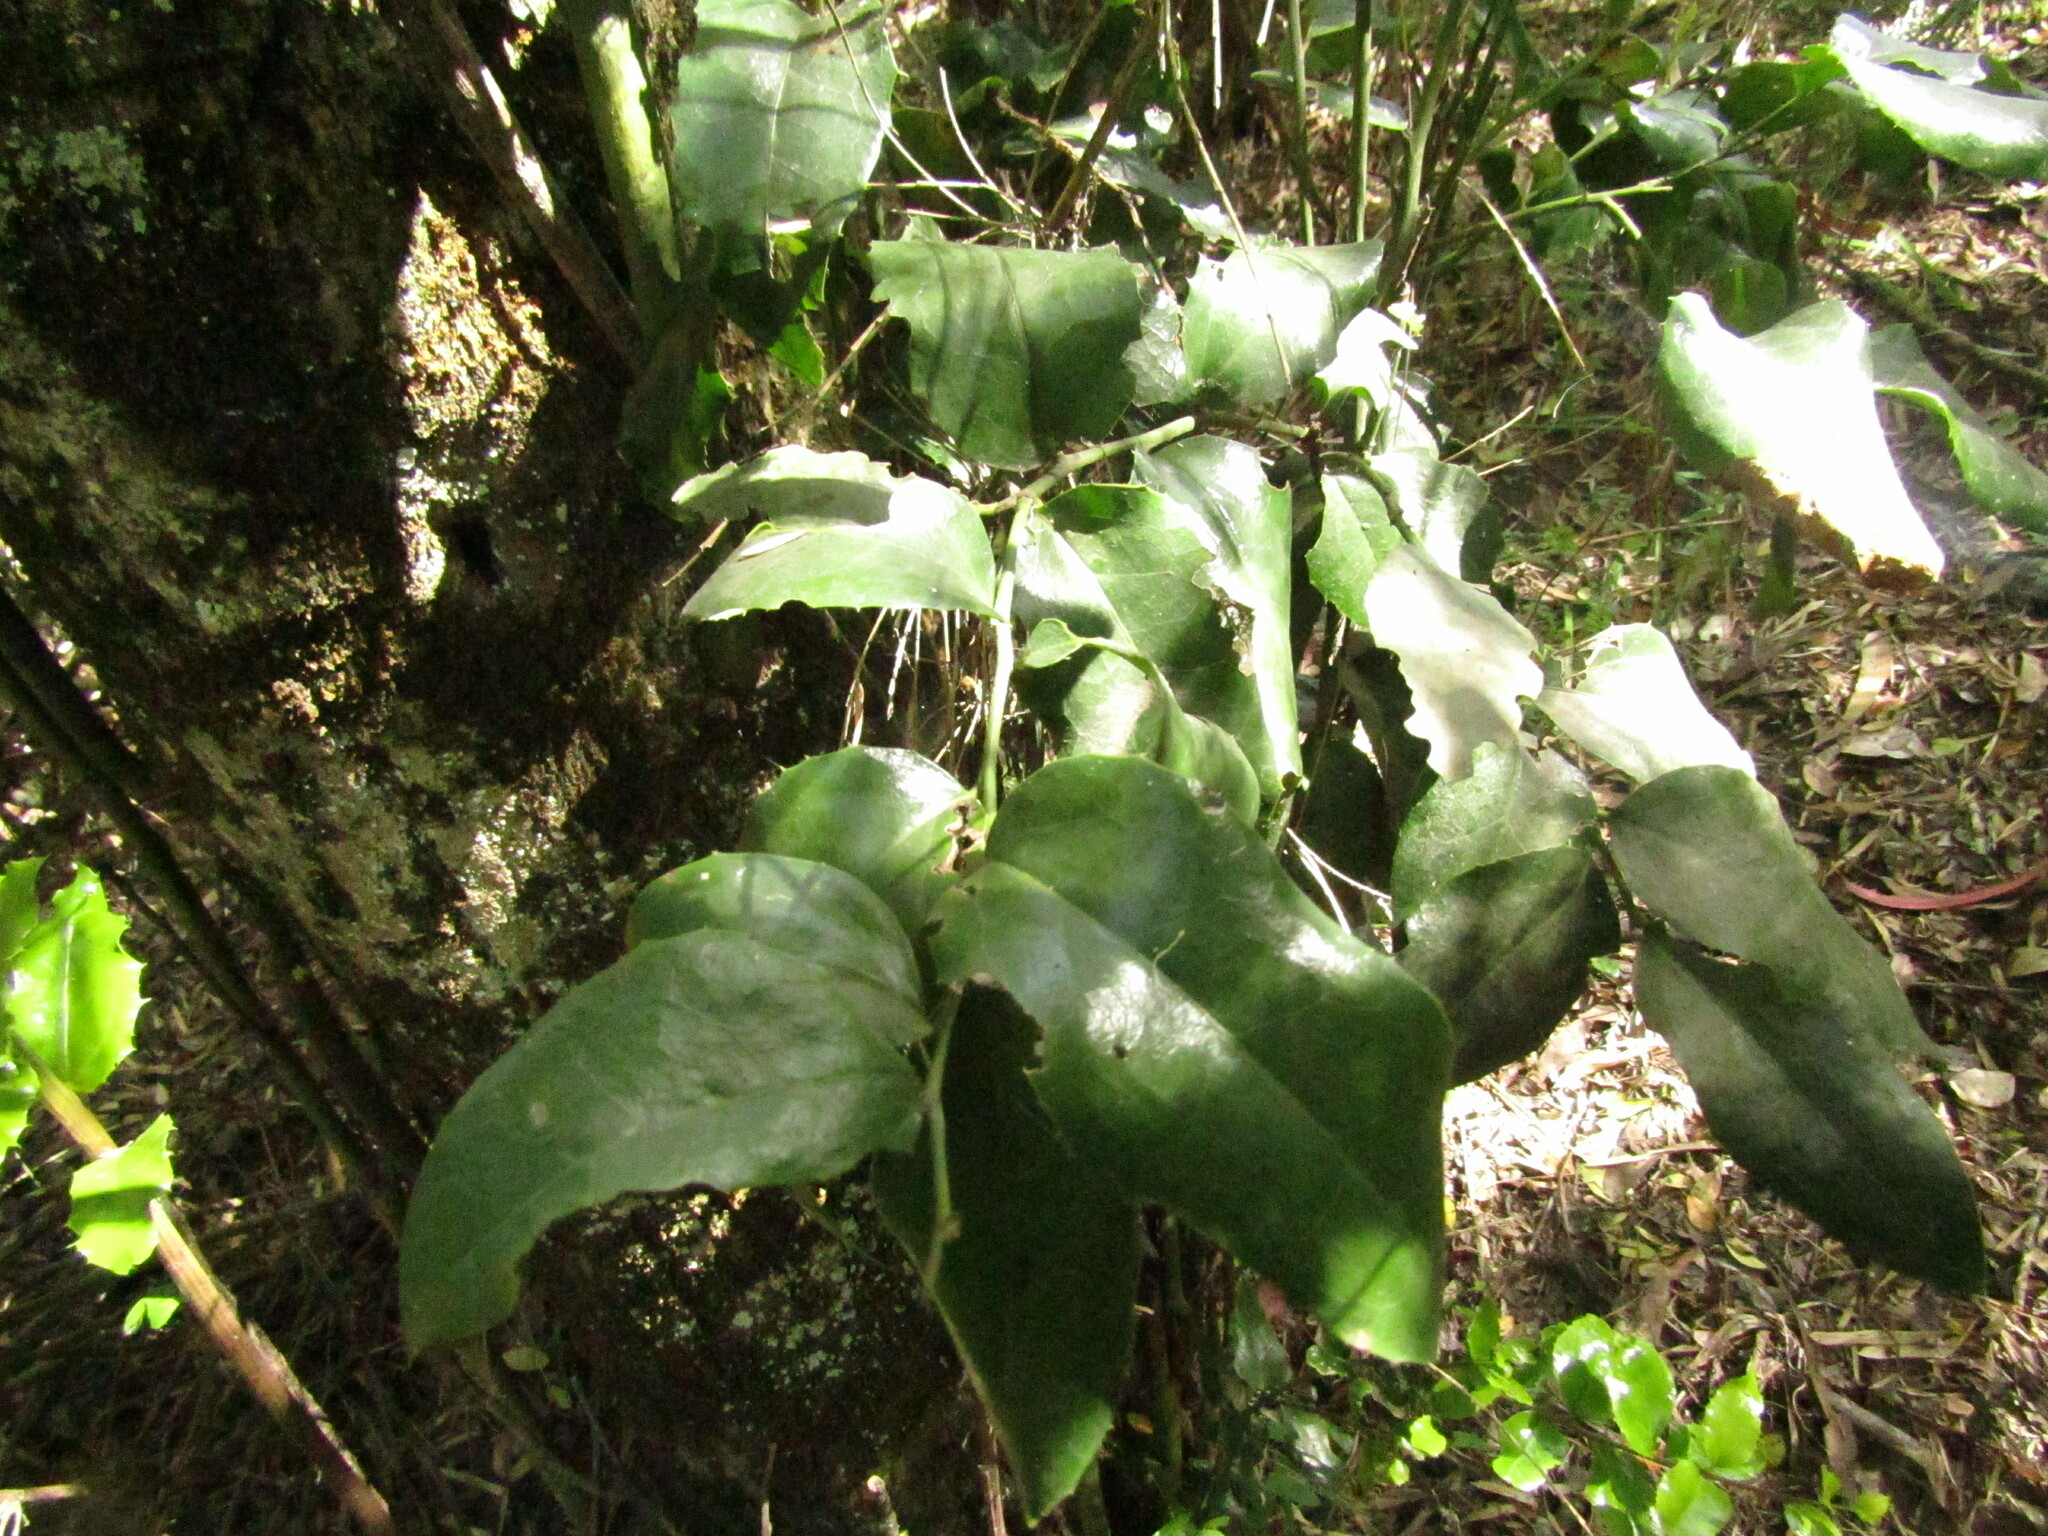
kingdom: Plantae
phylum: Tracheophyta
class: Magnoliopsida
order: Cardiopteridales
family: Cardiopteridaceae
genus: Citronella
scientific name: Citronella mucronata
